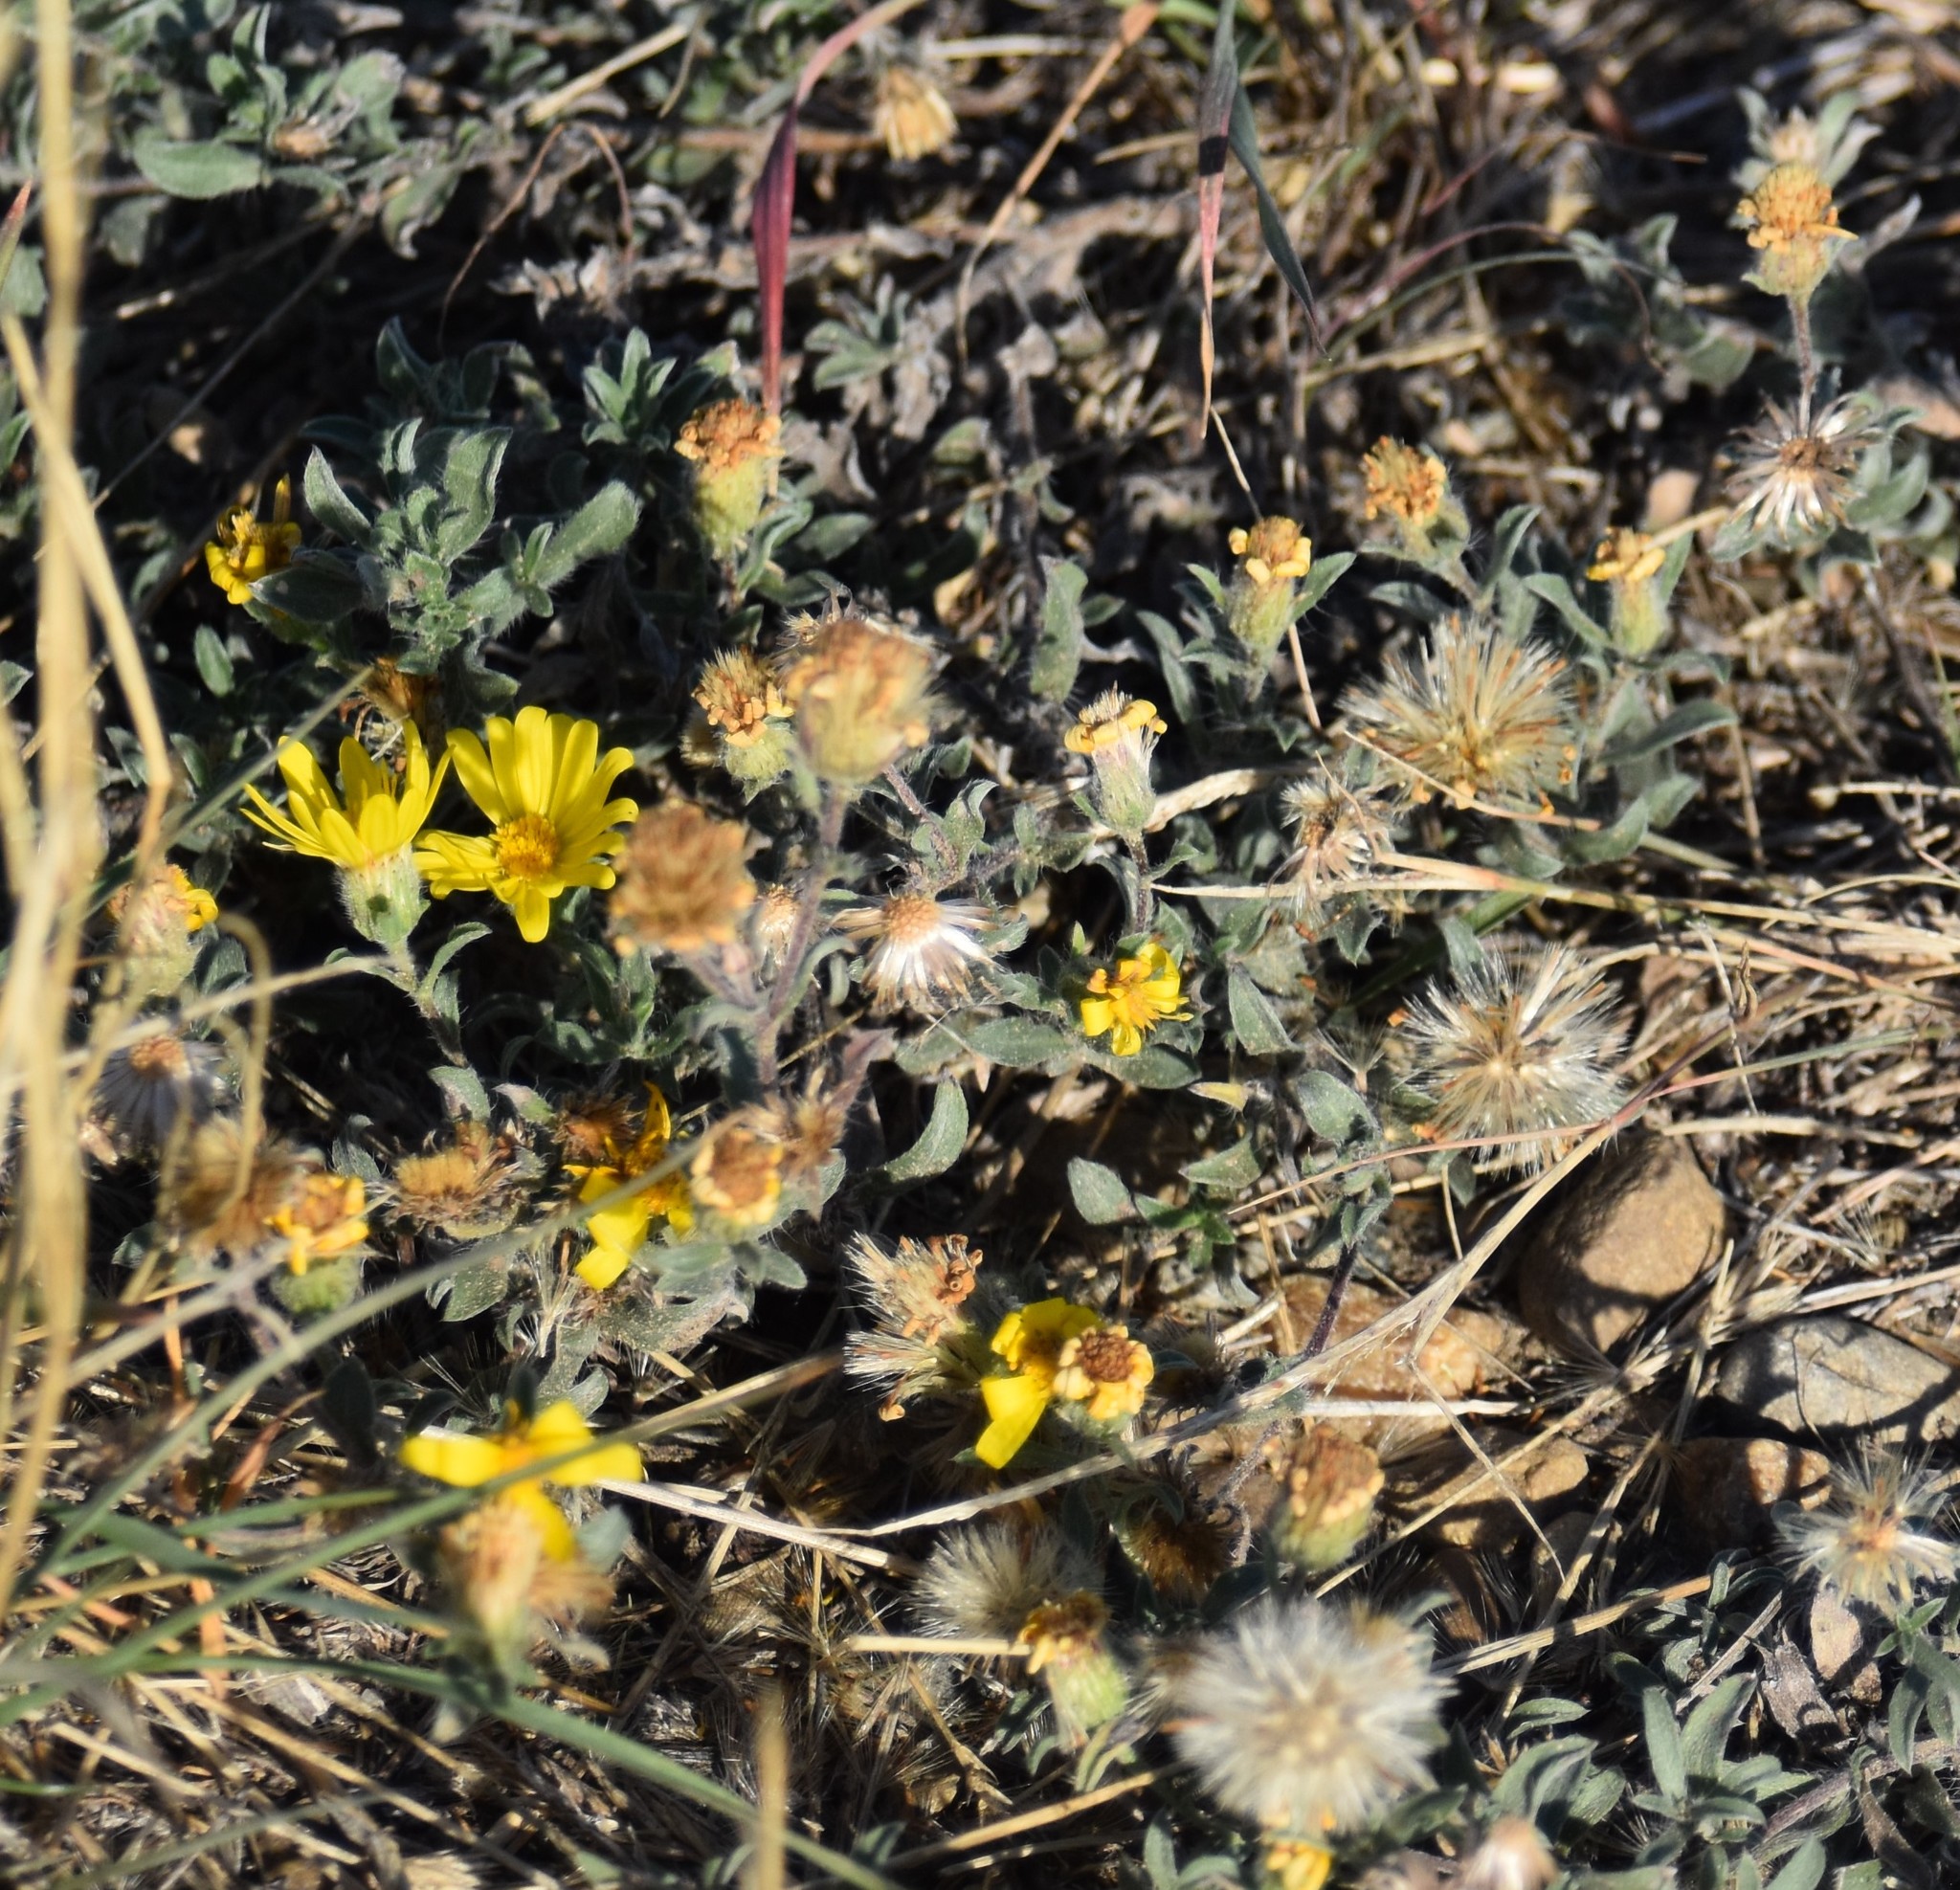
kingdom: Plantae
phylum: Tracheophyta
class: Magnoliopsida
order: Asterales
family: Asteraceae
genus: Heterotheca
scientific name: Heterotheca villosa
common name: Hairy false goldenaster
